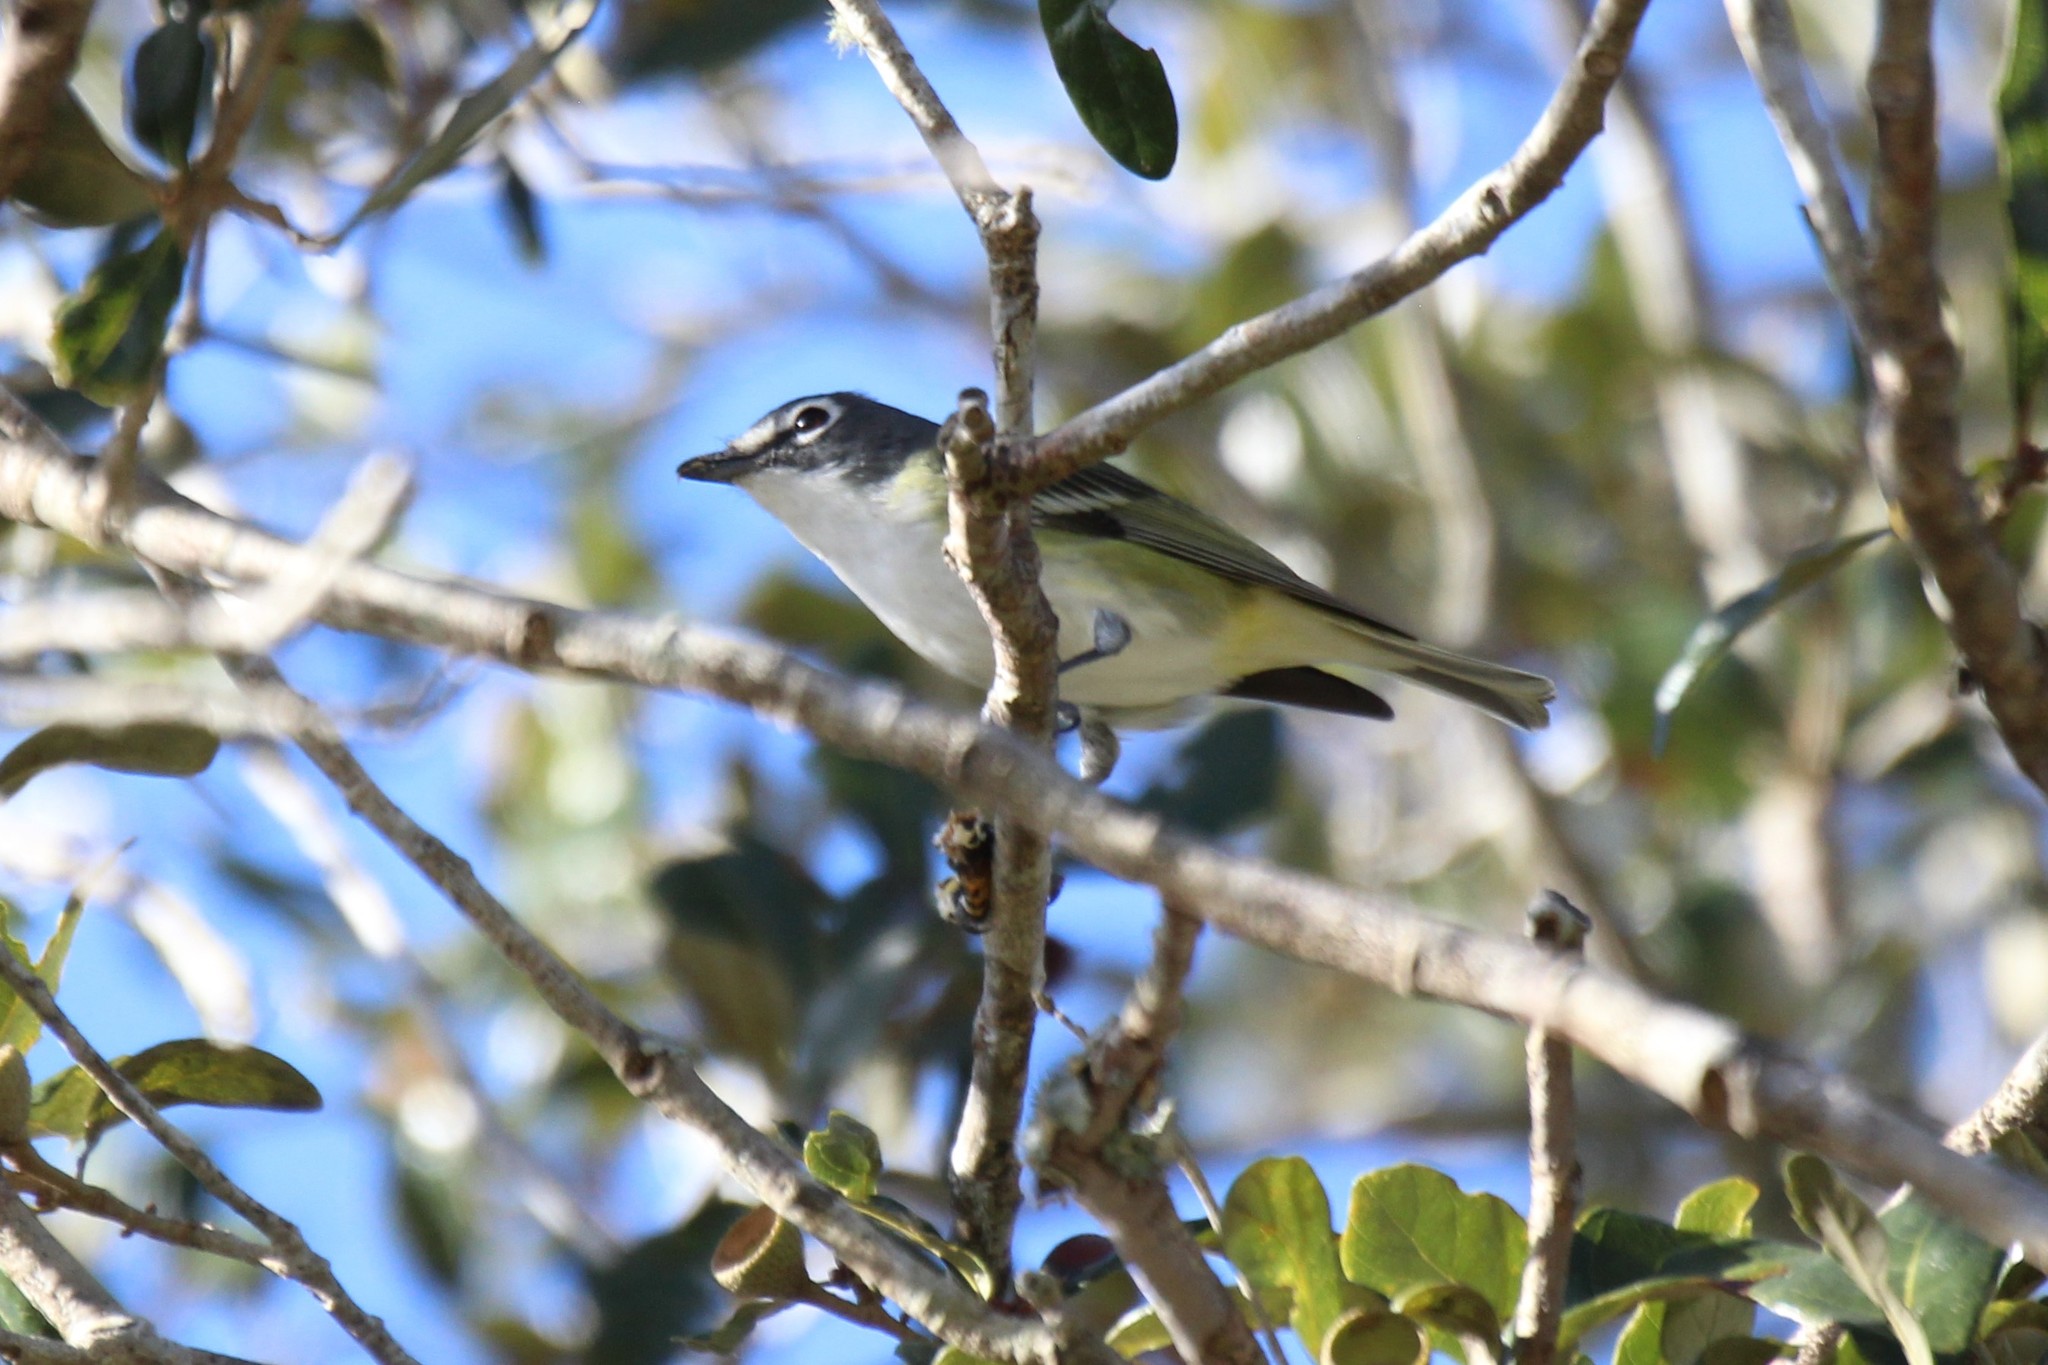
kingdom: Animalia
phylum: Chordata
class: Aves
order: Passeriformes
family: Vireonidae
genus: Vireo
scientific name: Vireo solitarius
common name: Blue-headed vireo
